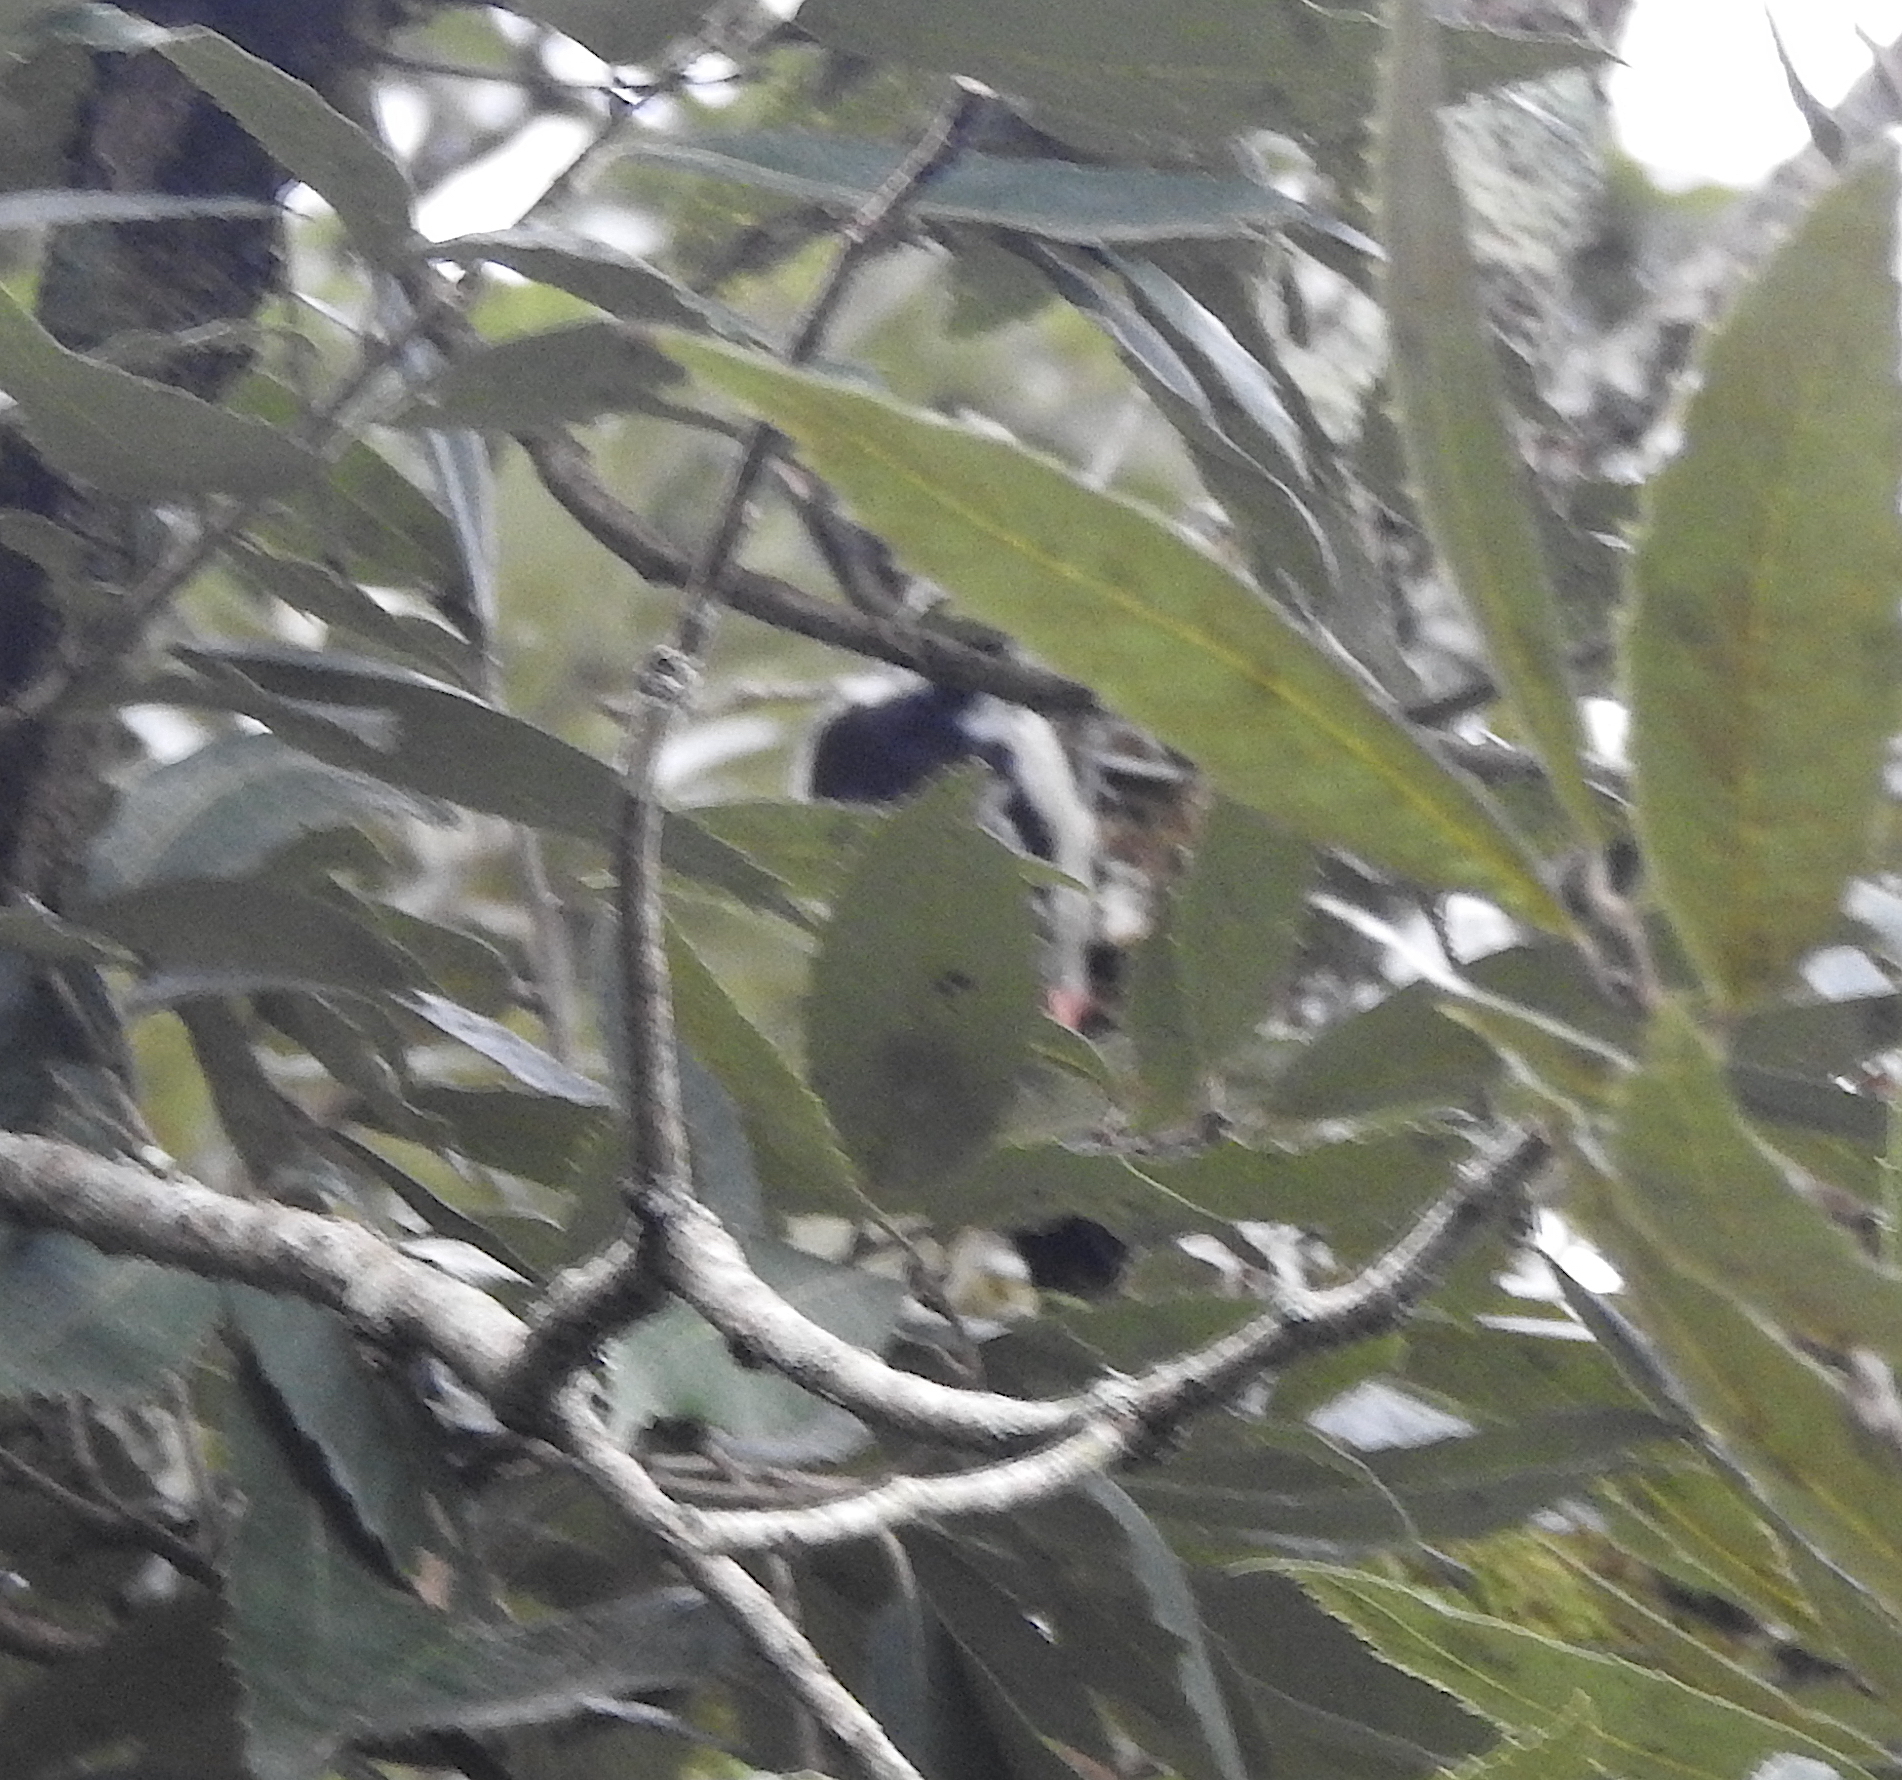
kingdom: Animalia
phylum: Chordata
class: Aves
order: Piciformes
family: Picidae
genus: Dendrocoptes
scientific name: Dendrocoptes auriceps
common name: Brown-fronted woodpecker
